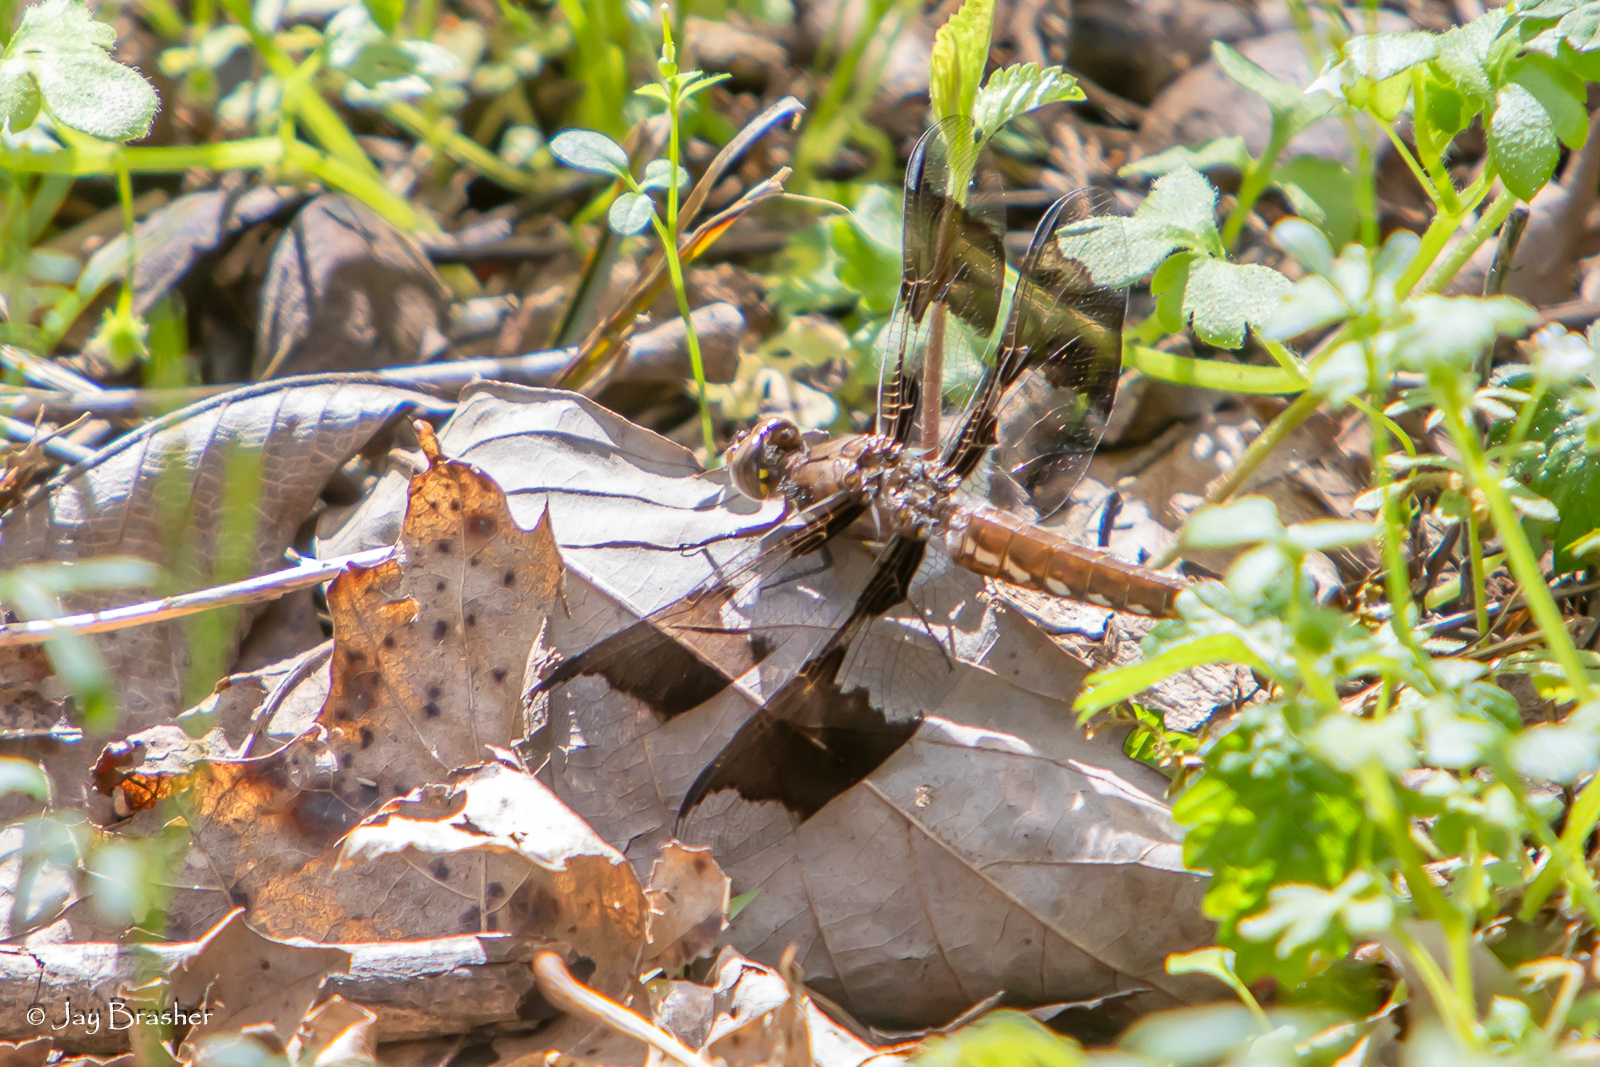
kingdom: Animalia
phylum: Arthropoda
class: Insecta
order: Odonata
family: Libellulidae
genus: Plathemis
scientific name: Plathemis lydia
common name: Common whitetail
